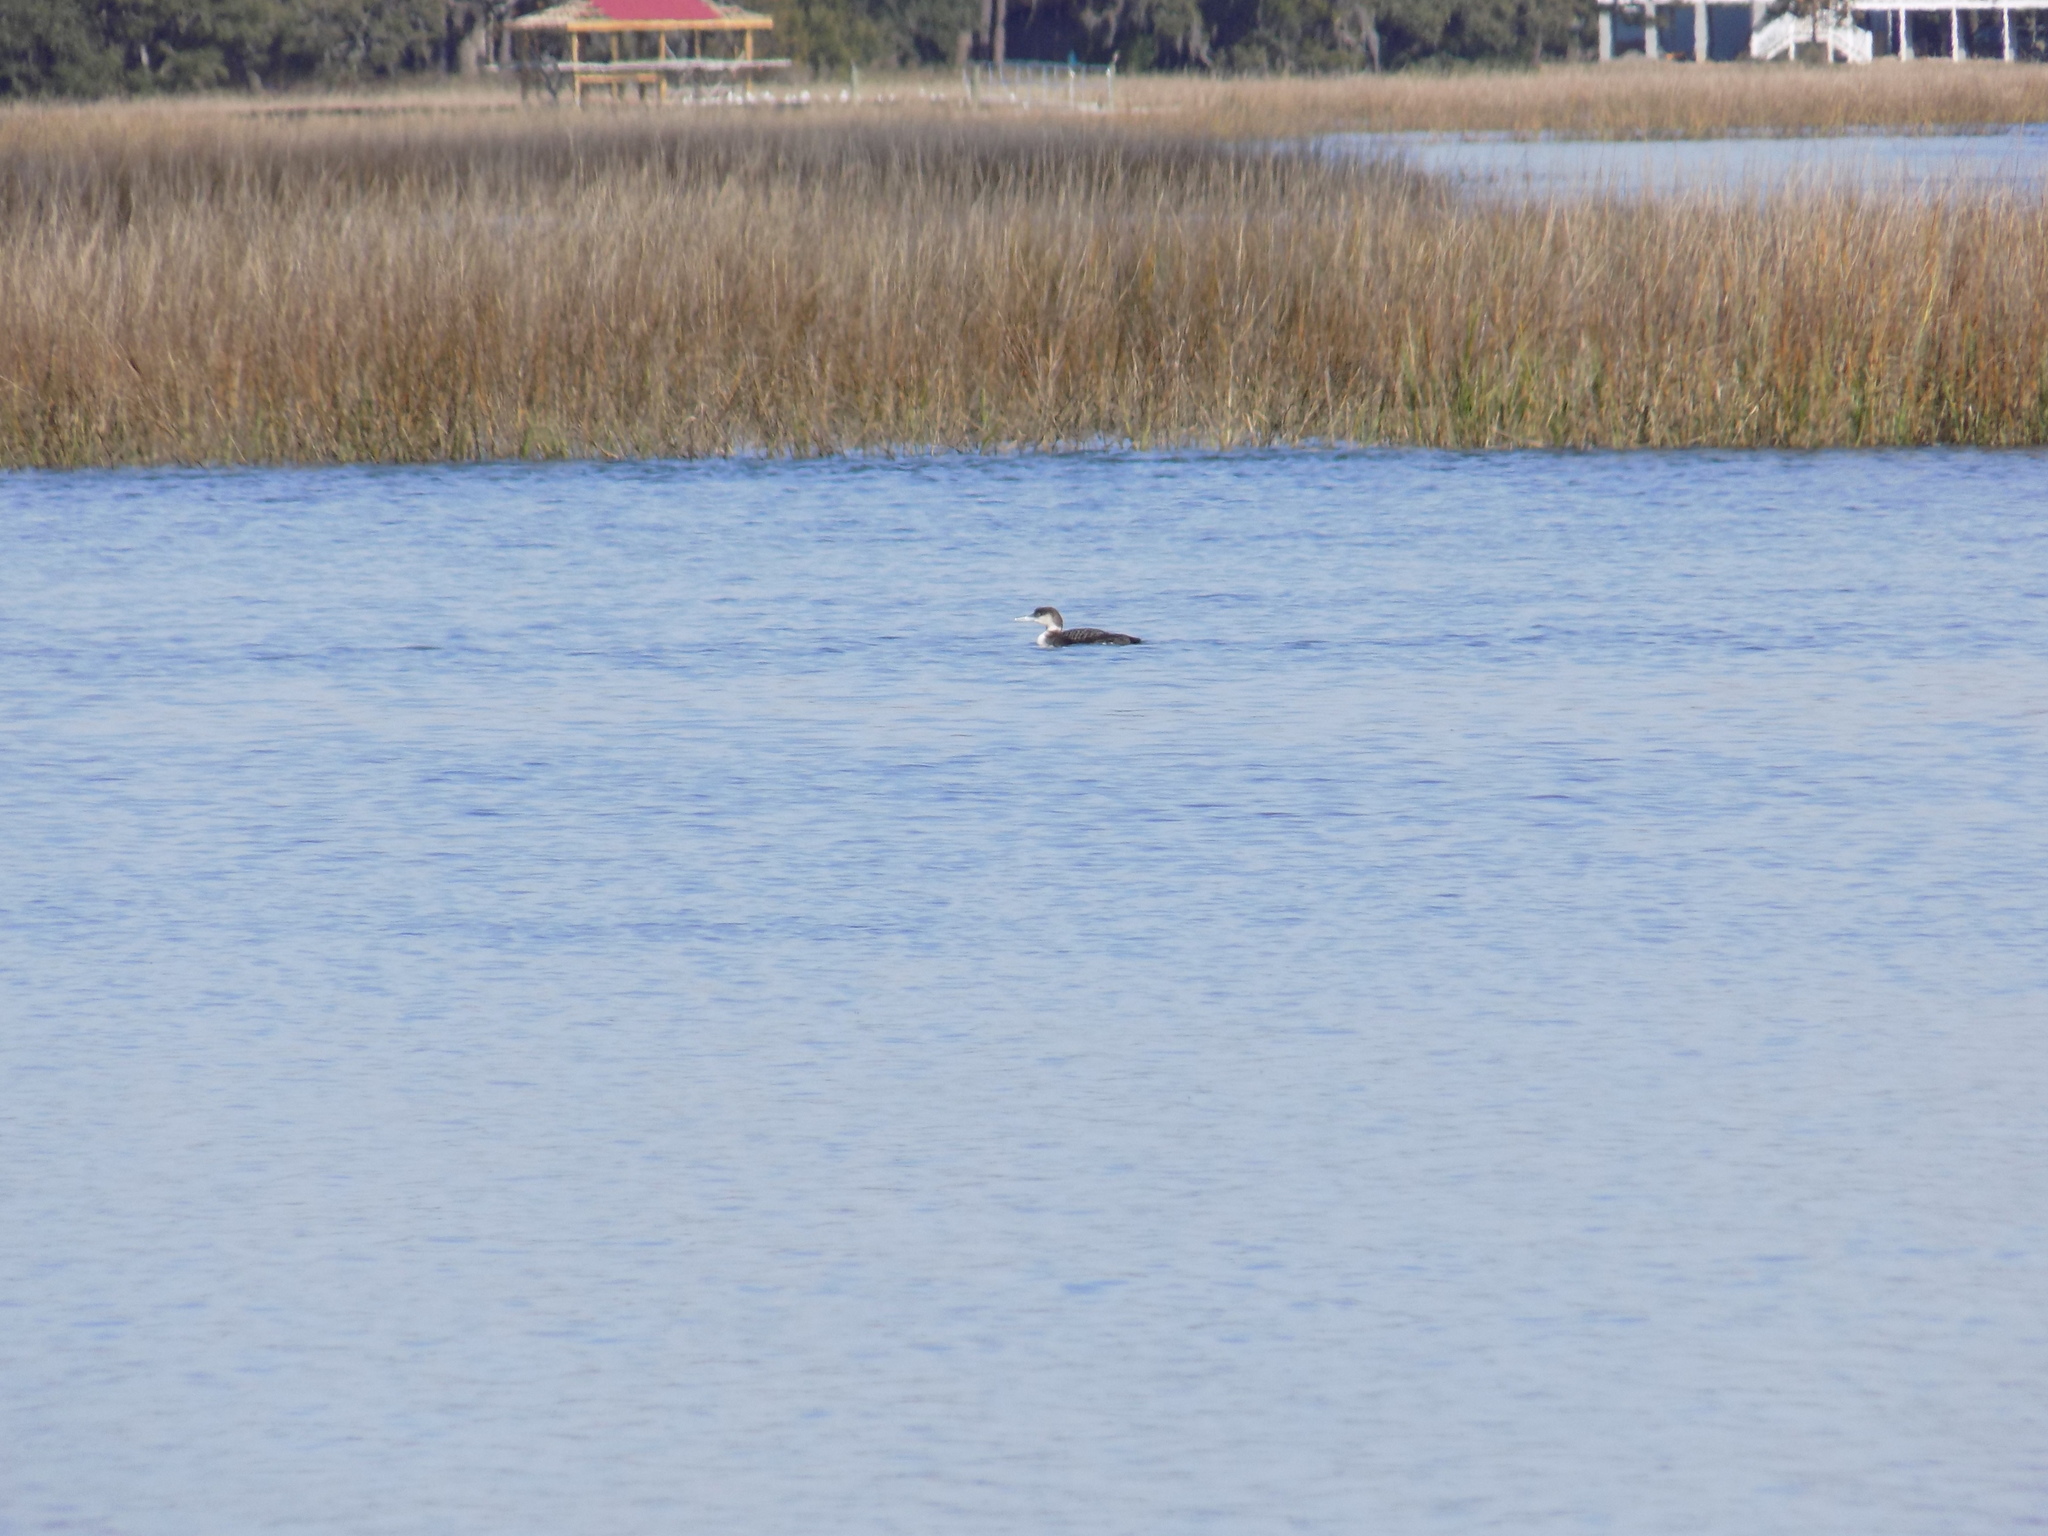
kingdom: Animalia
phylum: Chordata
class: Aves
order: Gaviiformes
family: Gaviidae
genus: Gavia
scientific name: Gavia immer
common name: Common loon
